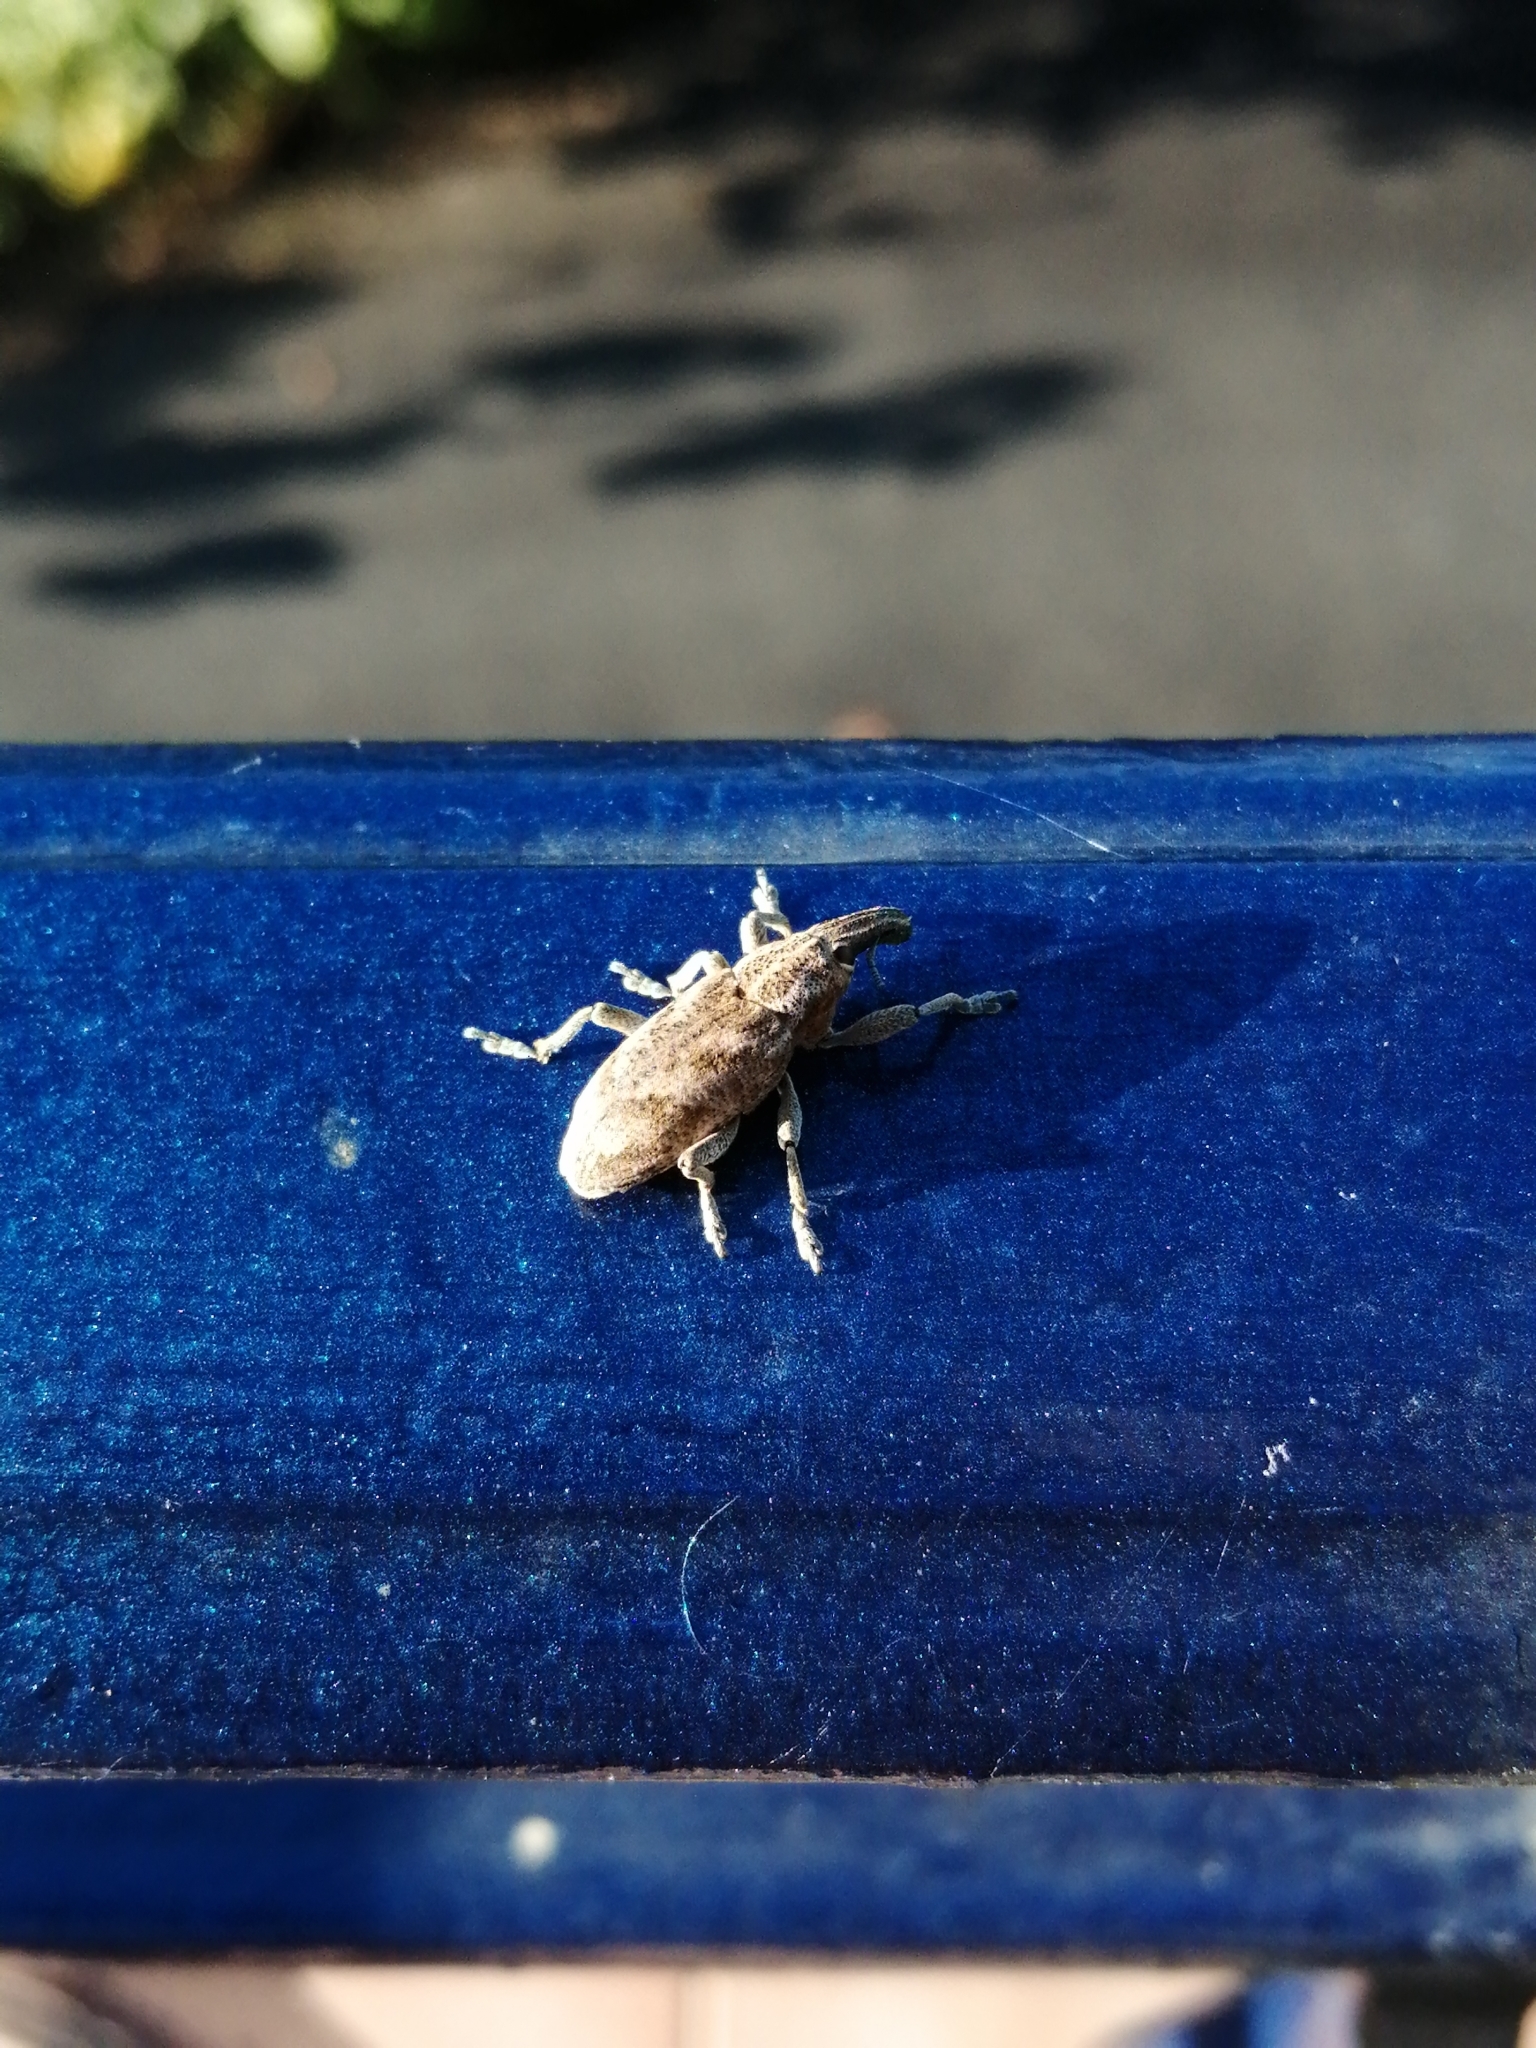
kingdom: Animalia
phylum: Arthropoda
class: Insecta
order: Coleoptera
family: Curculionidae
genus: Cleonis
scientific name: Cleonis pigra
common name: Large thistle weevil
